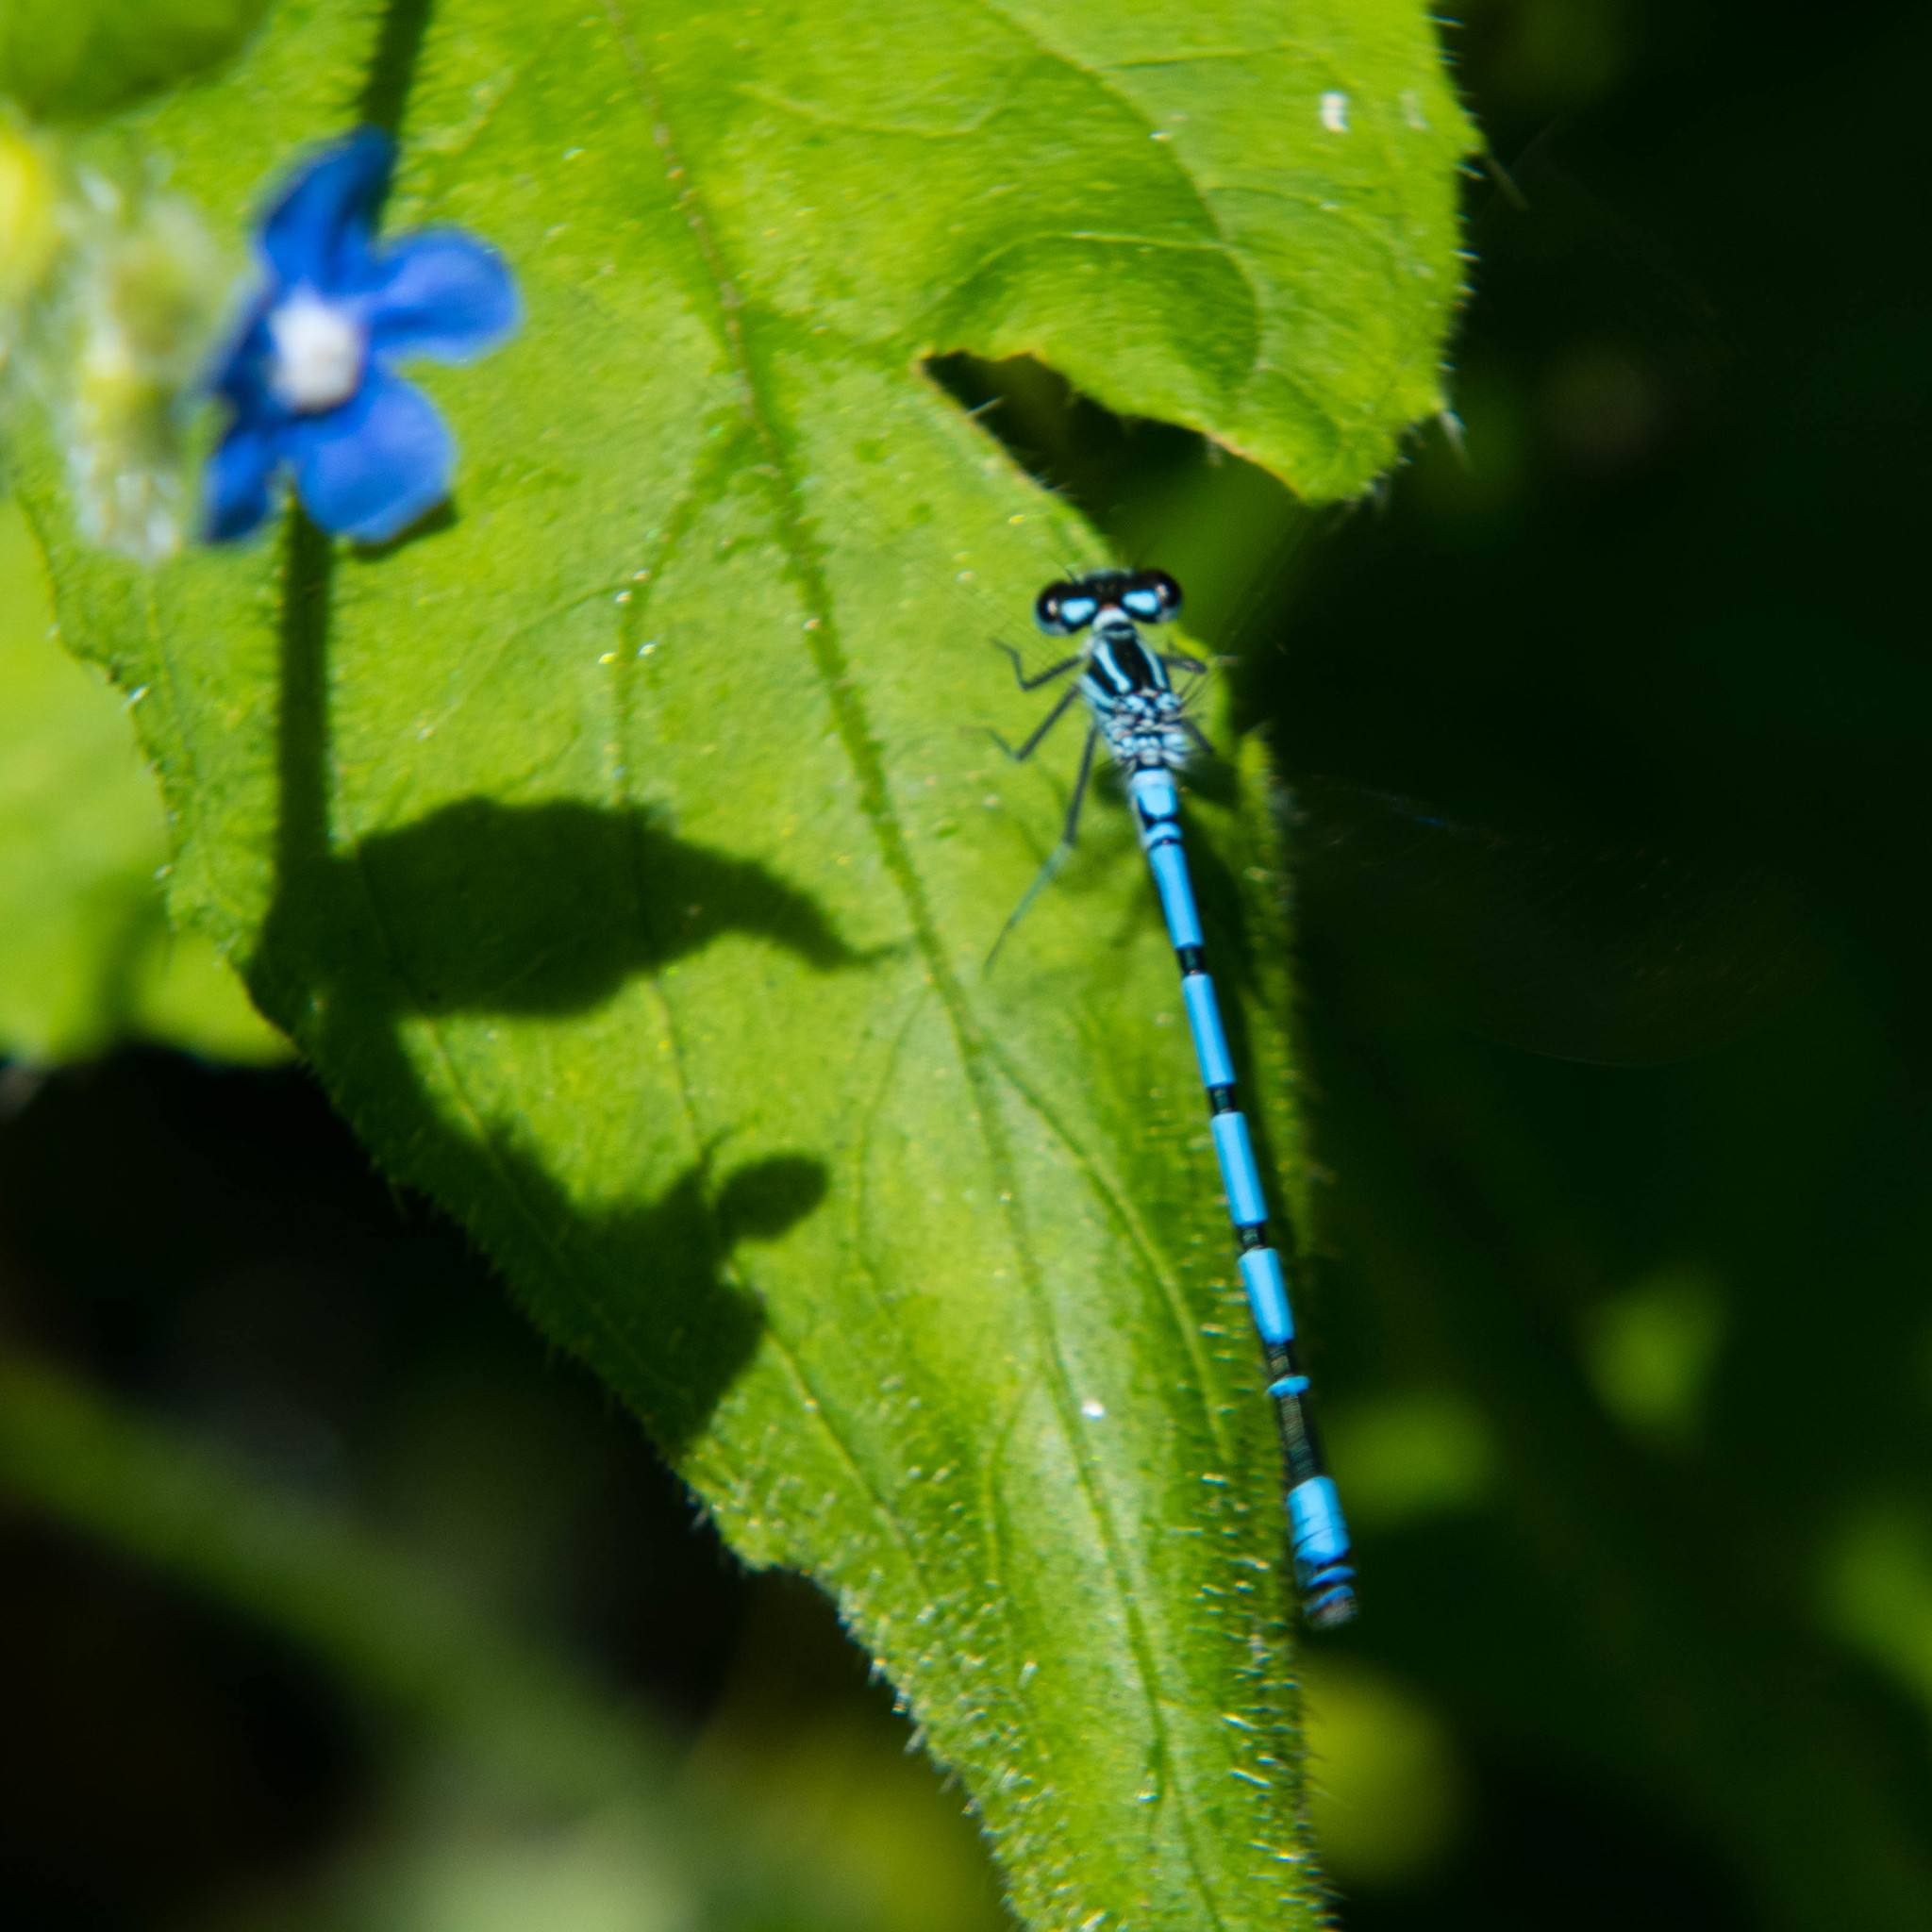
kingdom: Animalia
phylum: Arthropoda
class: Insecta
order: Odonata
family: Coenagrionidae
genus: Coenagrion
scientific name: Coenagrion puella
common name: Azure damselfly
